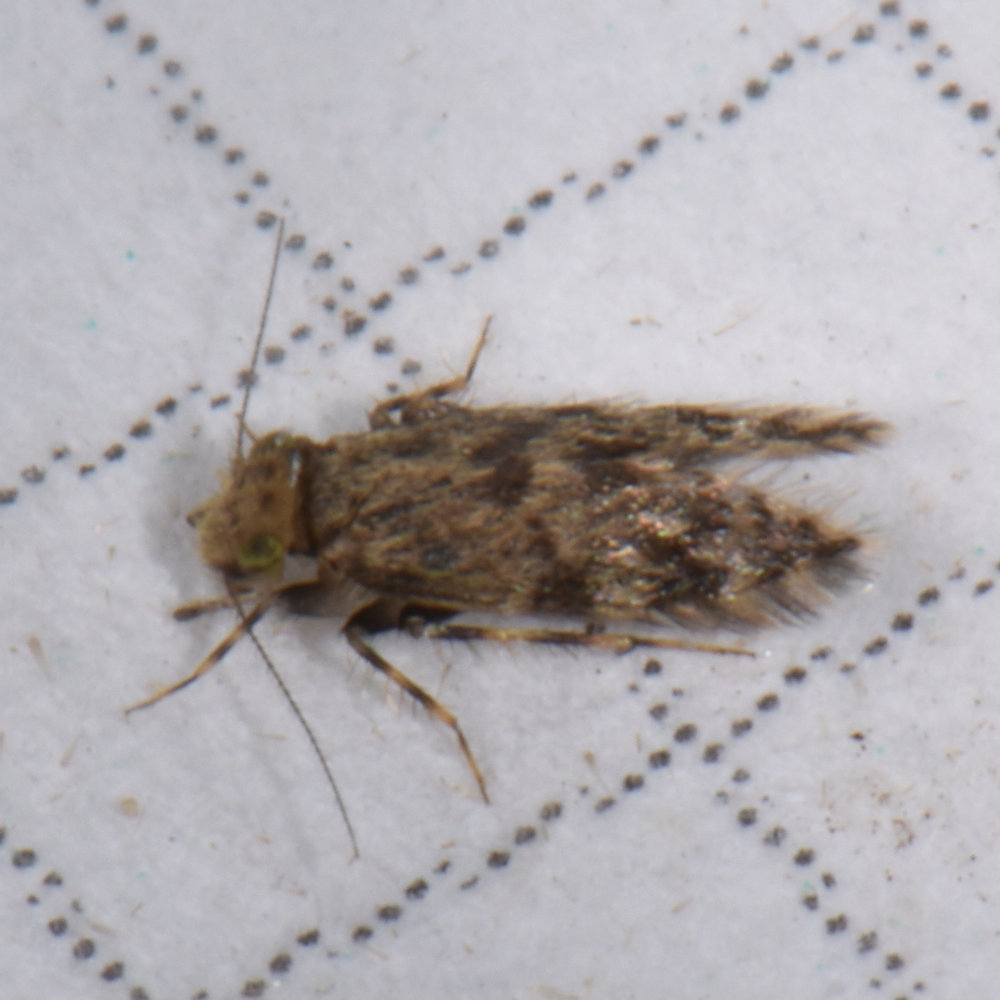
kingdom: Animalia
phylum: Arthropoda
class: Insecta
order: Psocodea
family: Lepidopsocidae
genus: Echmepteryx
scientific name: Echmepteryx hageni
